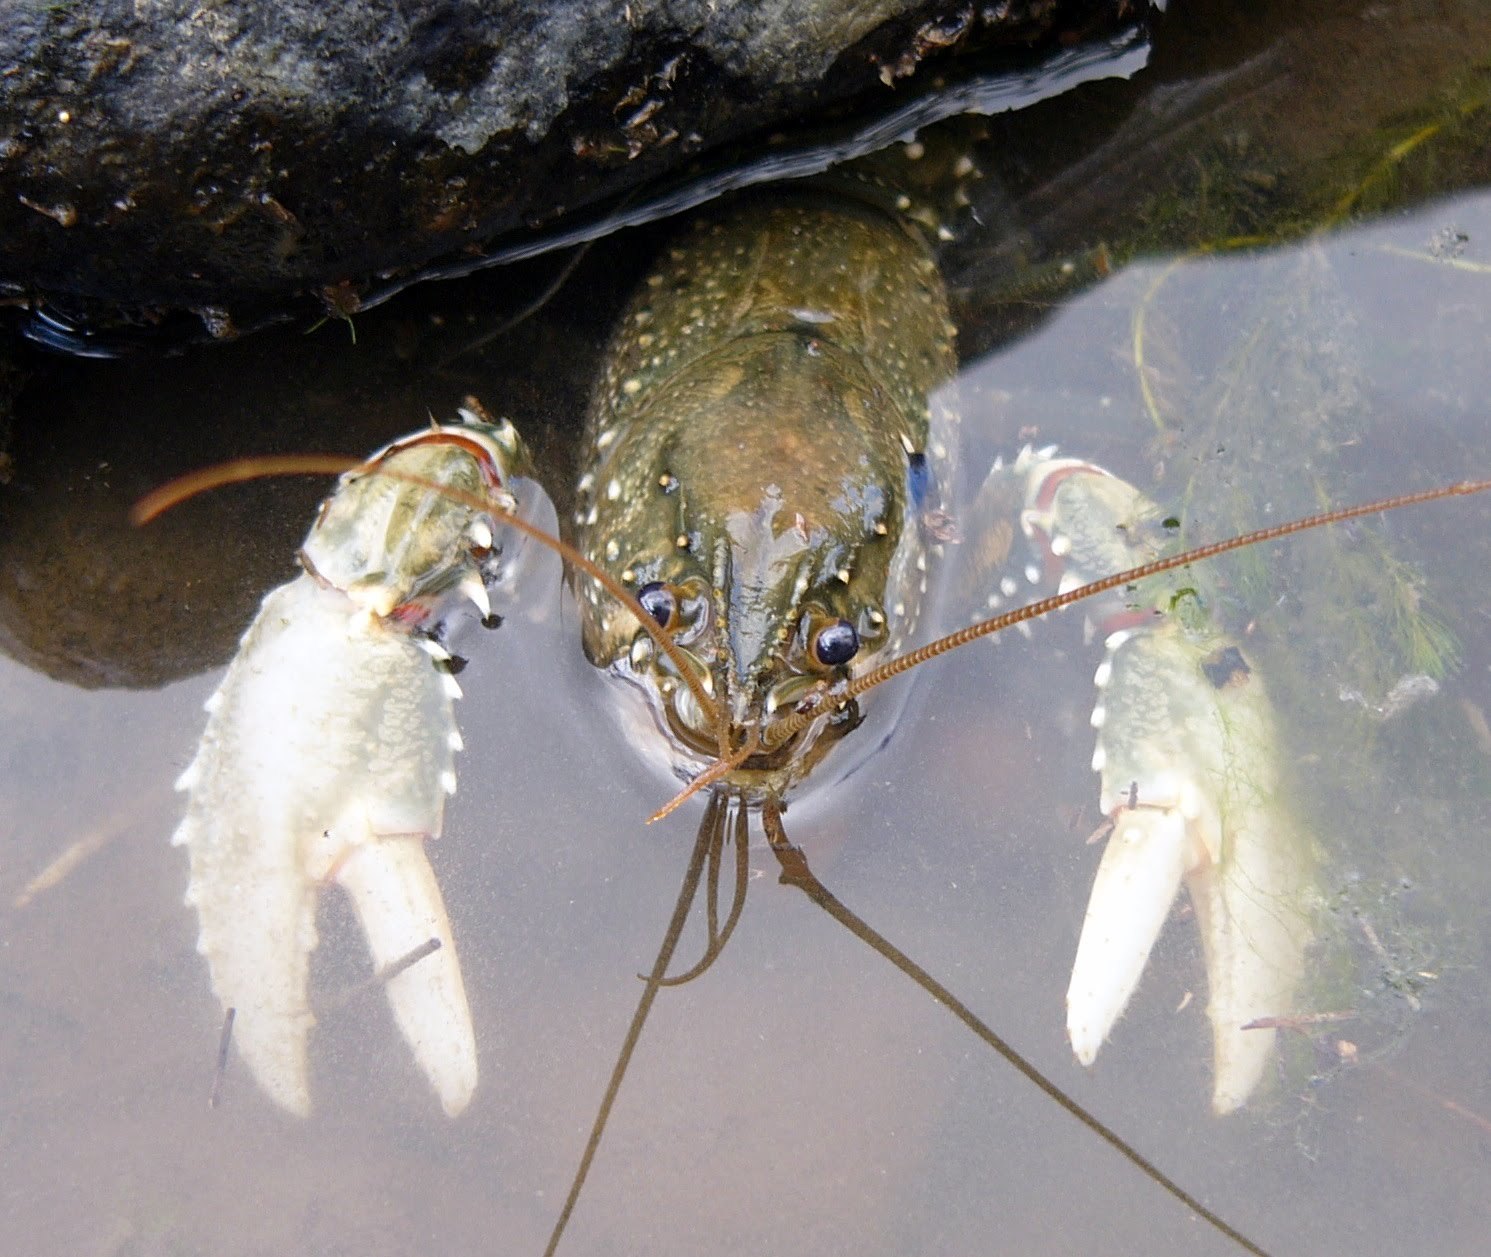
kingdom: Animalia
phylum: Arthropoda
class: Malacostraca
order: Decapoda
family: Parastacidae
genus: Euastacus
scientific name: Euastacus armatus
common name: Murray river crayfish
